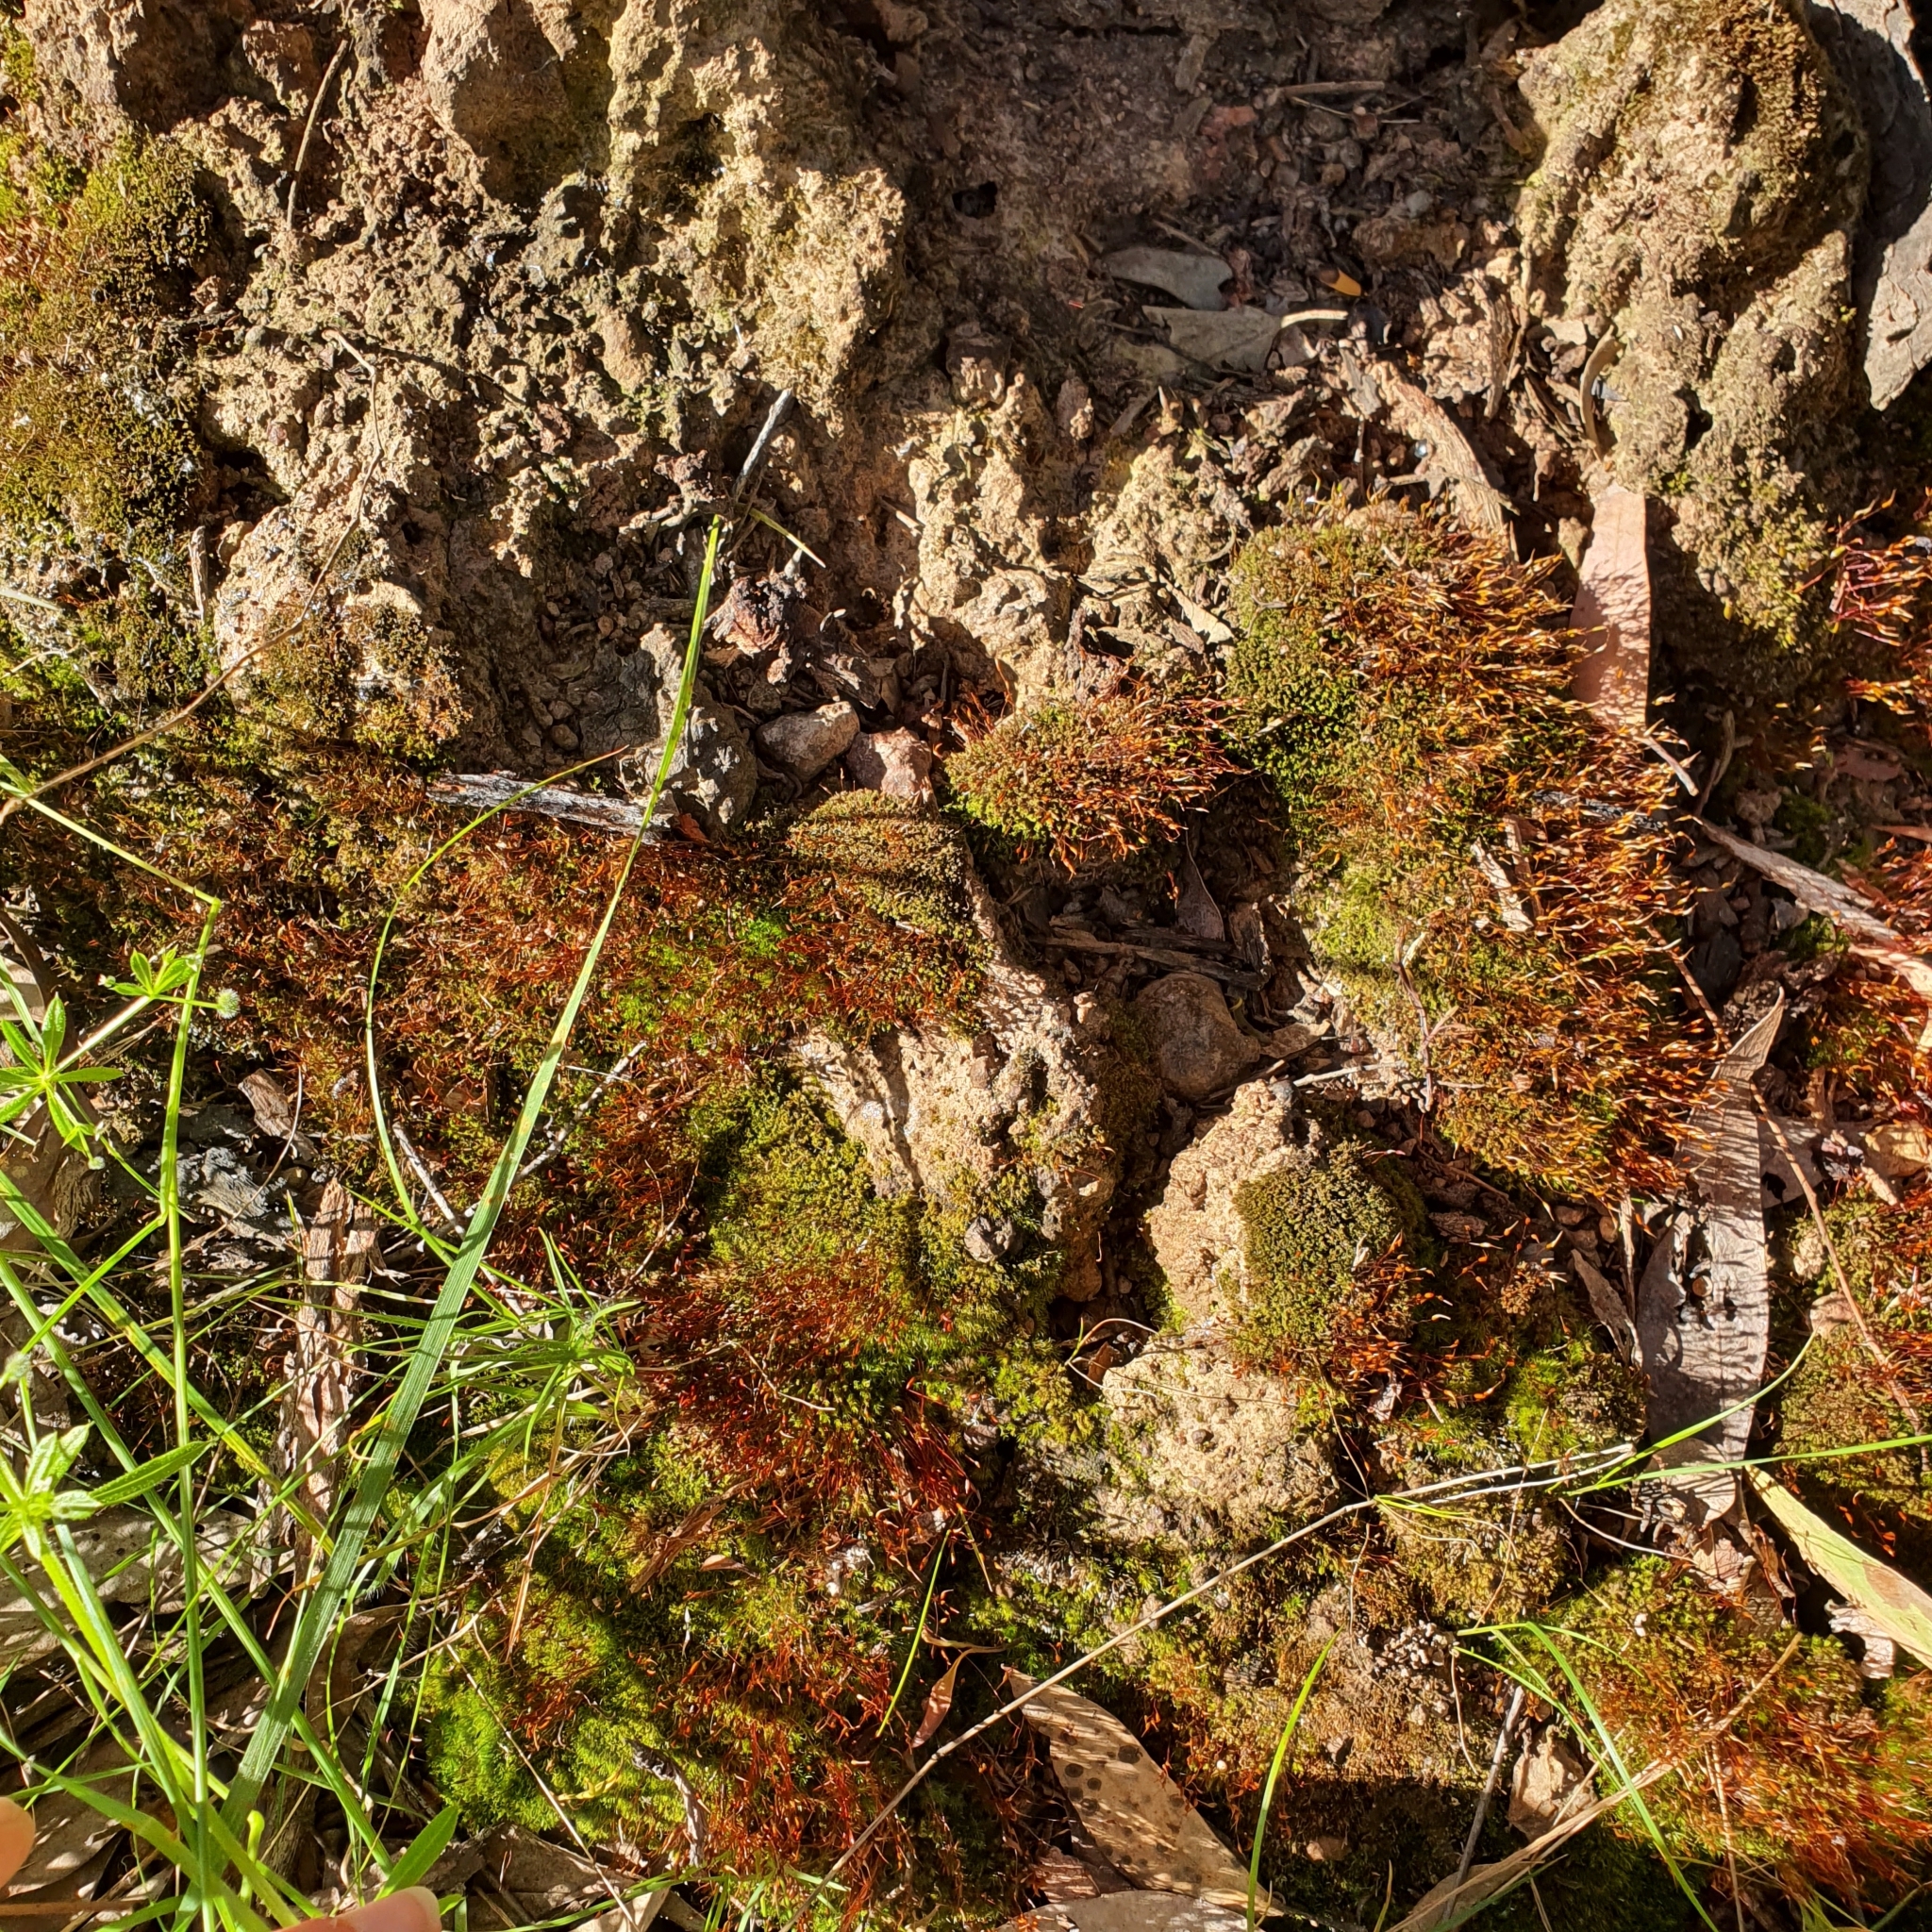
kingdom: Plantae
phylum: Bryophyta
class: Bryopsida
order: Dicranales
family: Ditrichaceae
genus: Ceratodon
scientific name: Ceratodon purpureus
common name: Redshank
